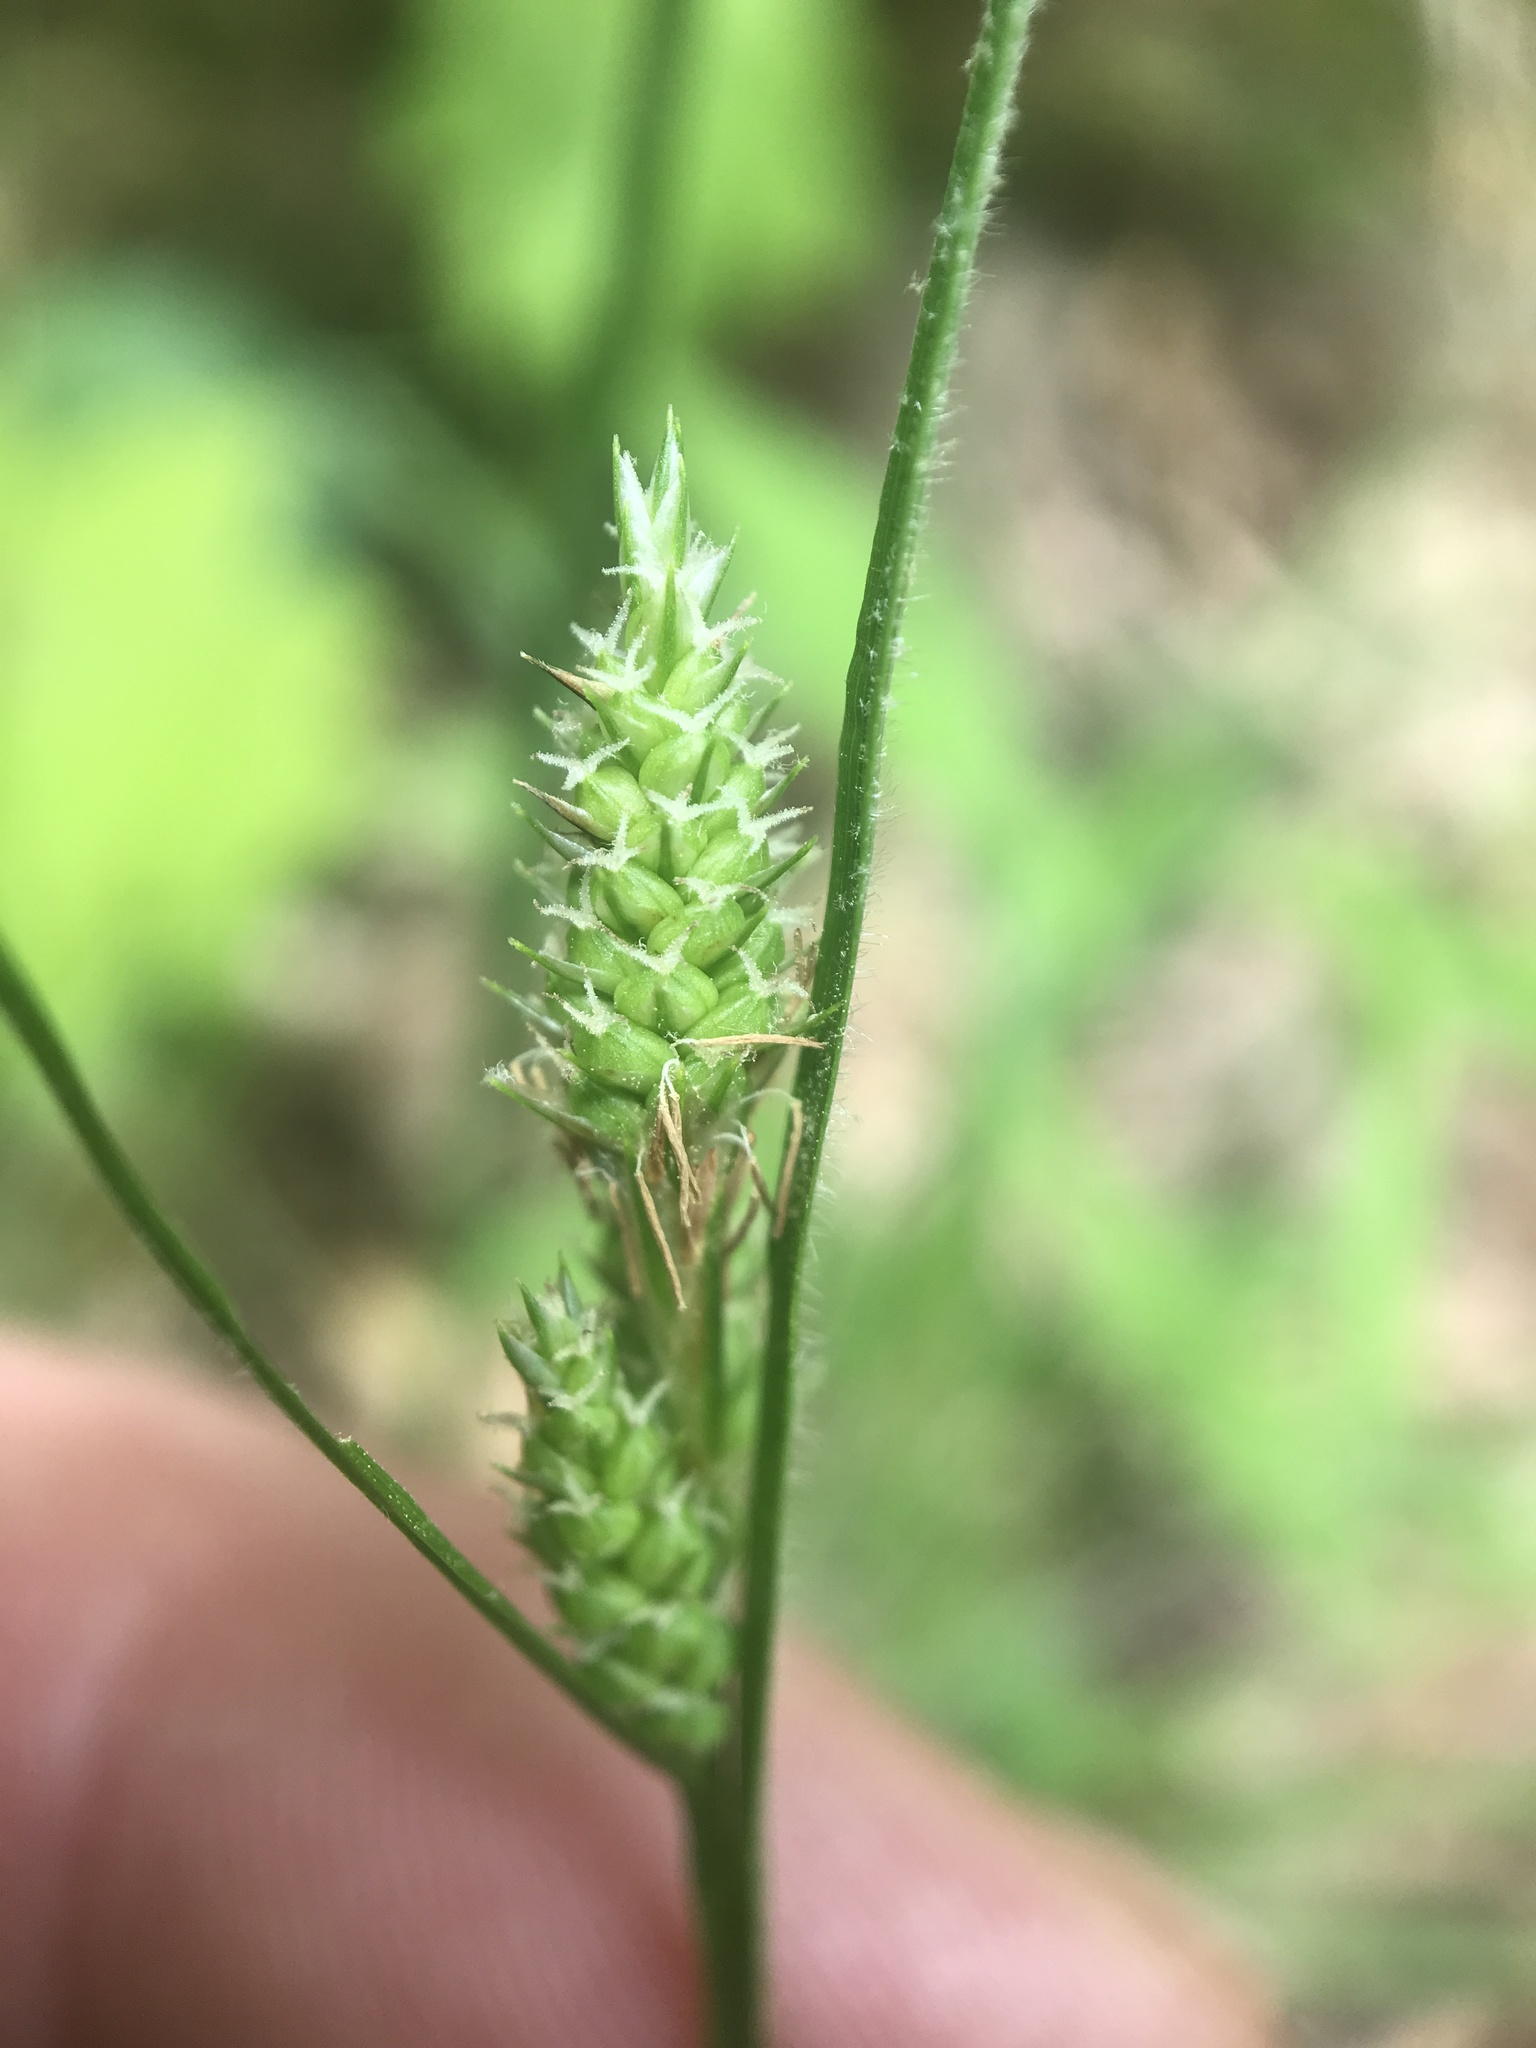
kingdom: Plantae
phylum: Tracheophyta
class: Liliopsida
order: Poales
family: Cyperaceae
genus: Carex
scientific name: Carex hirsutella
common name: Fuzzy wuzzy sedge
